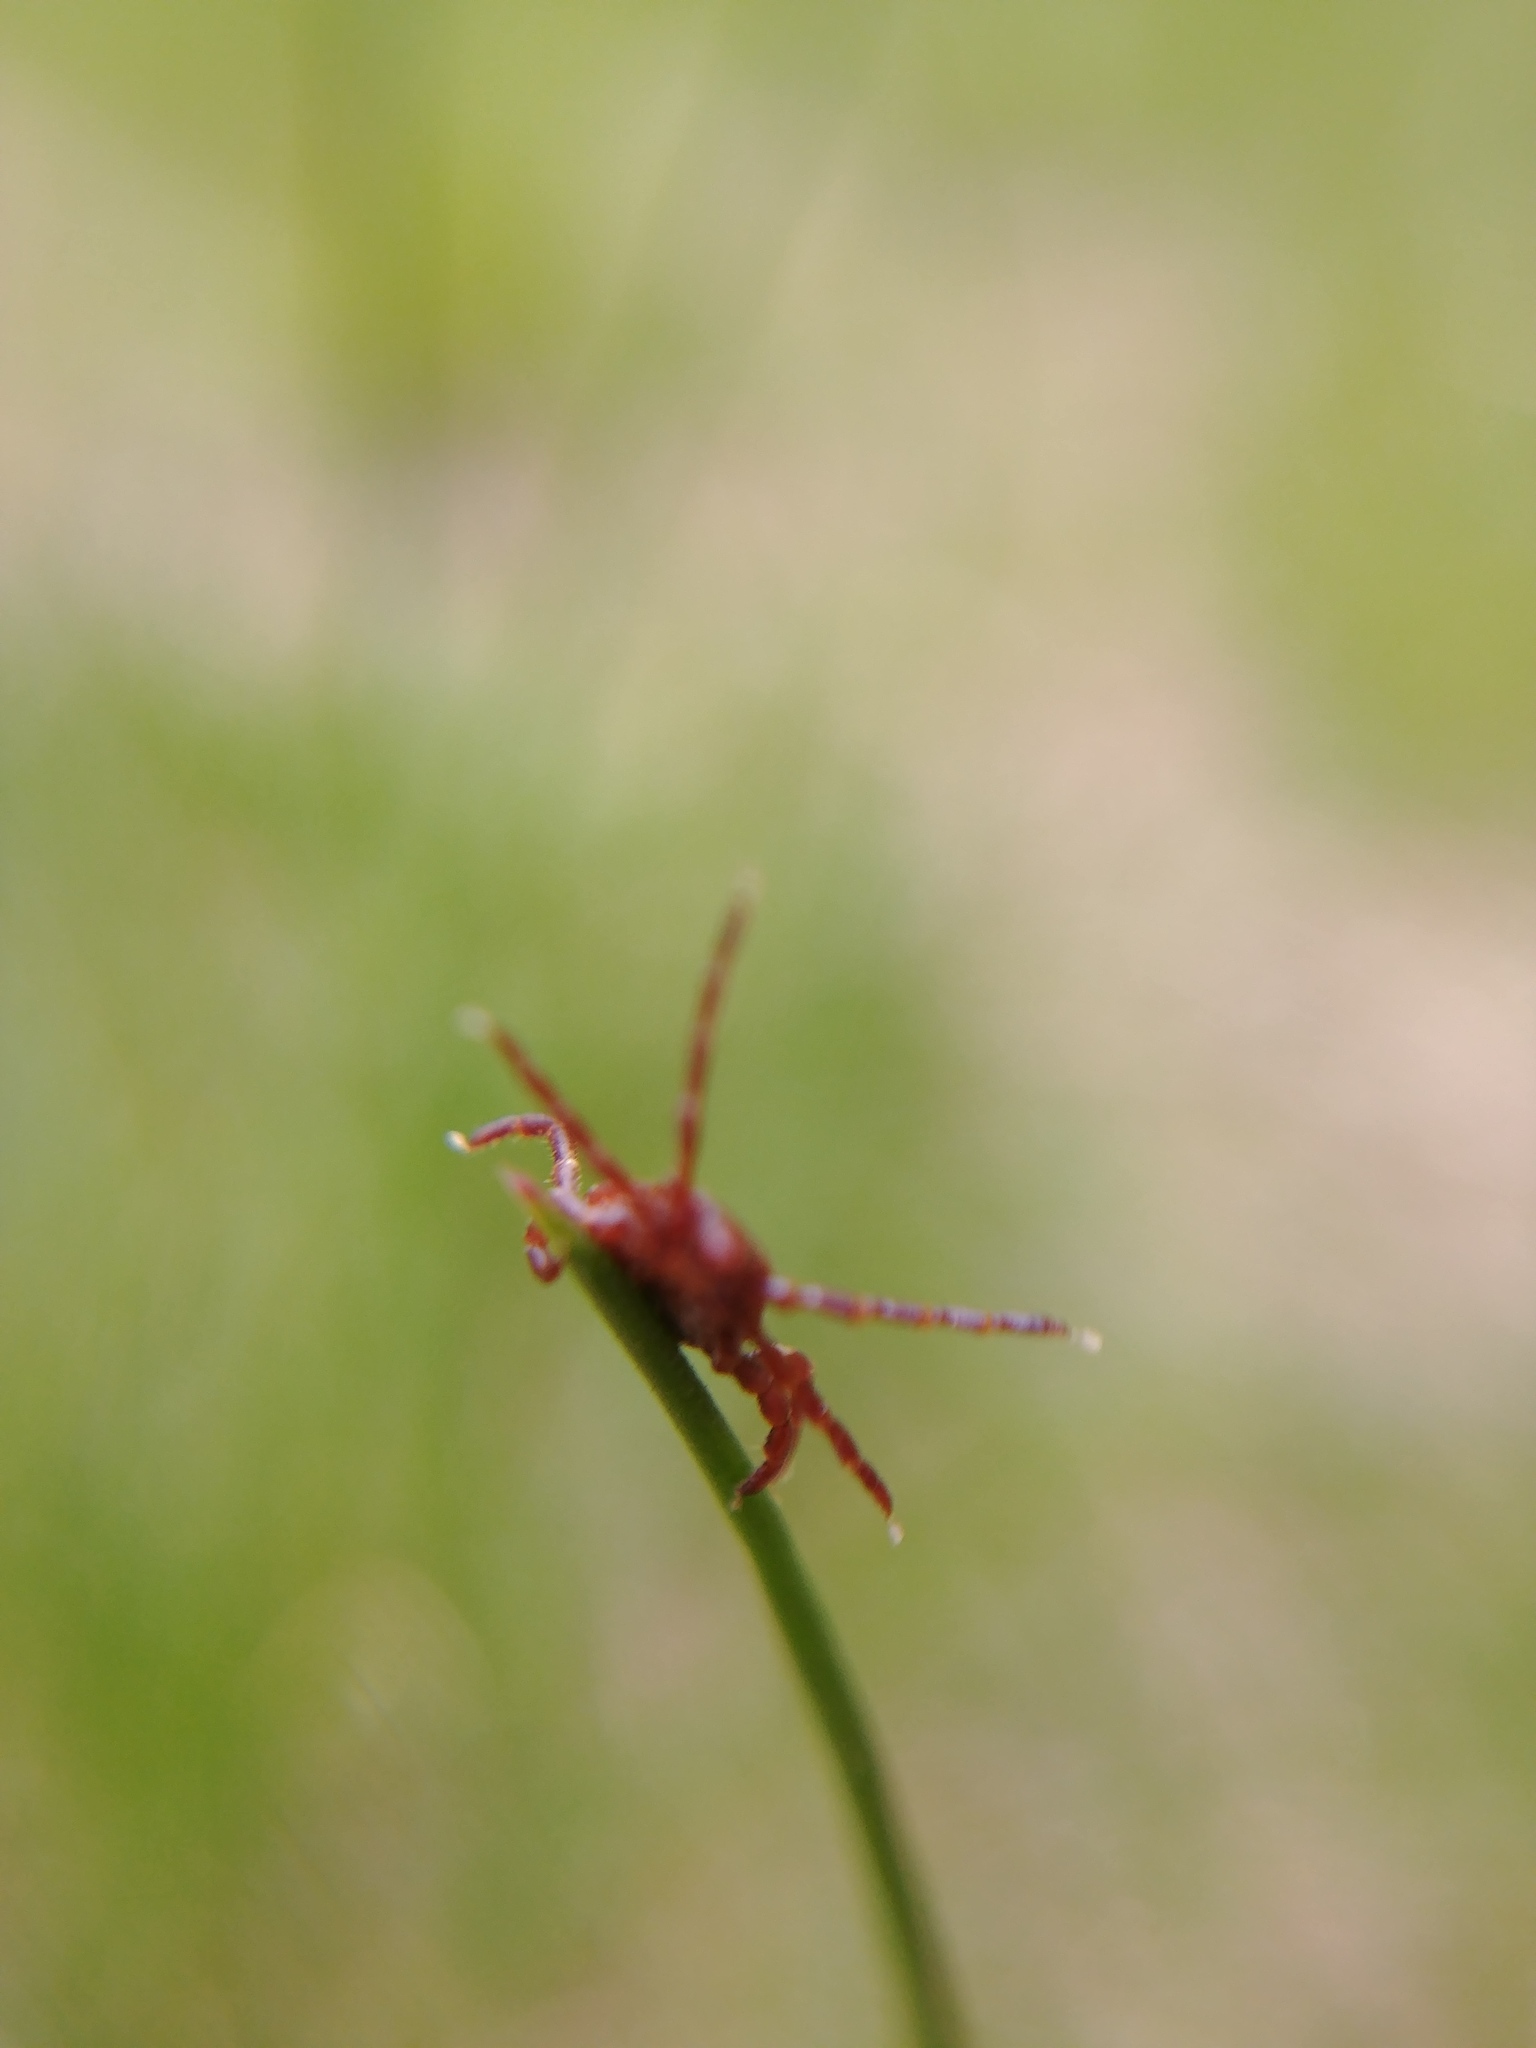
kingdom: Animalia
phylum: Arthropoda
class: Arachnida
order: Ixodida
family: Ixodidae
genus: Dermacentor
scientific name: Dermacentor variabilis
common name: American dog tick
